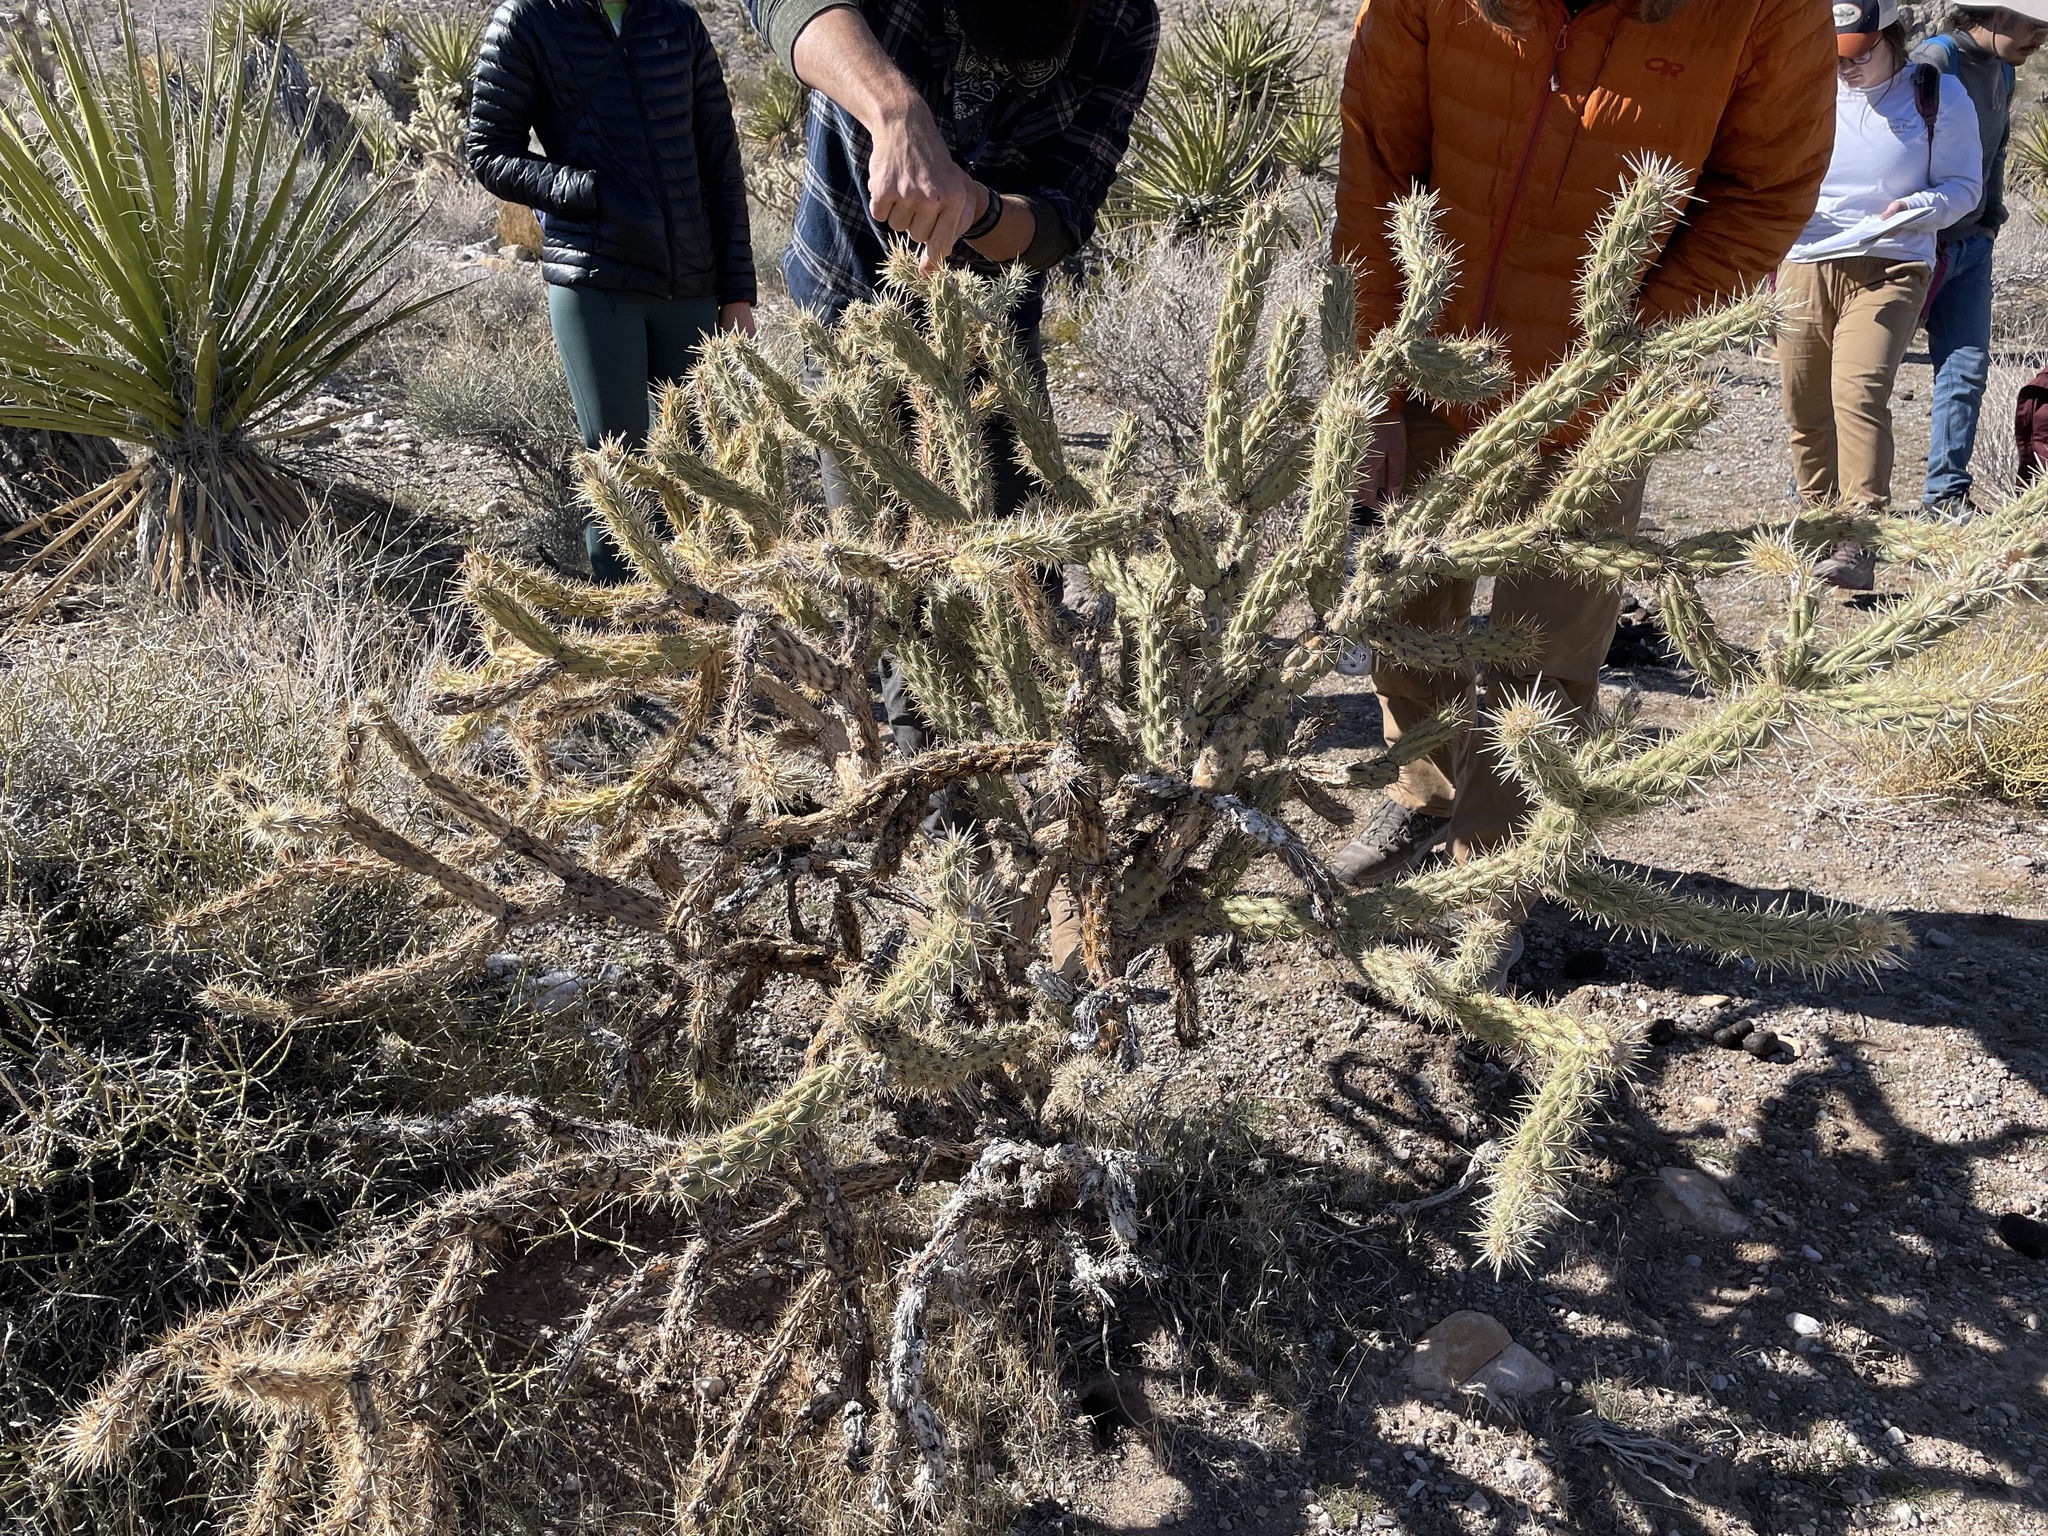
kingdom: Plantae
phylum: Tracheophyta
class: Magnoliopsida
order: Caryophyllales
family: Cactaceae
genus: Cylindropuntia
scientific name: Cylindropuntia acanthocarpa
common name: Buckhorn cholla
